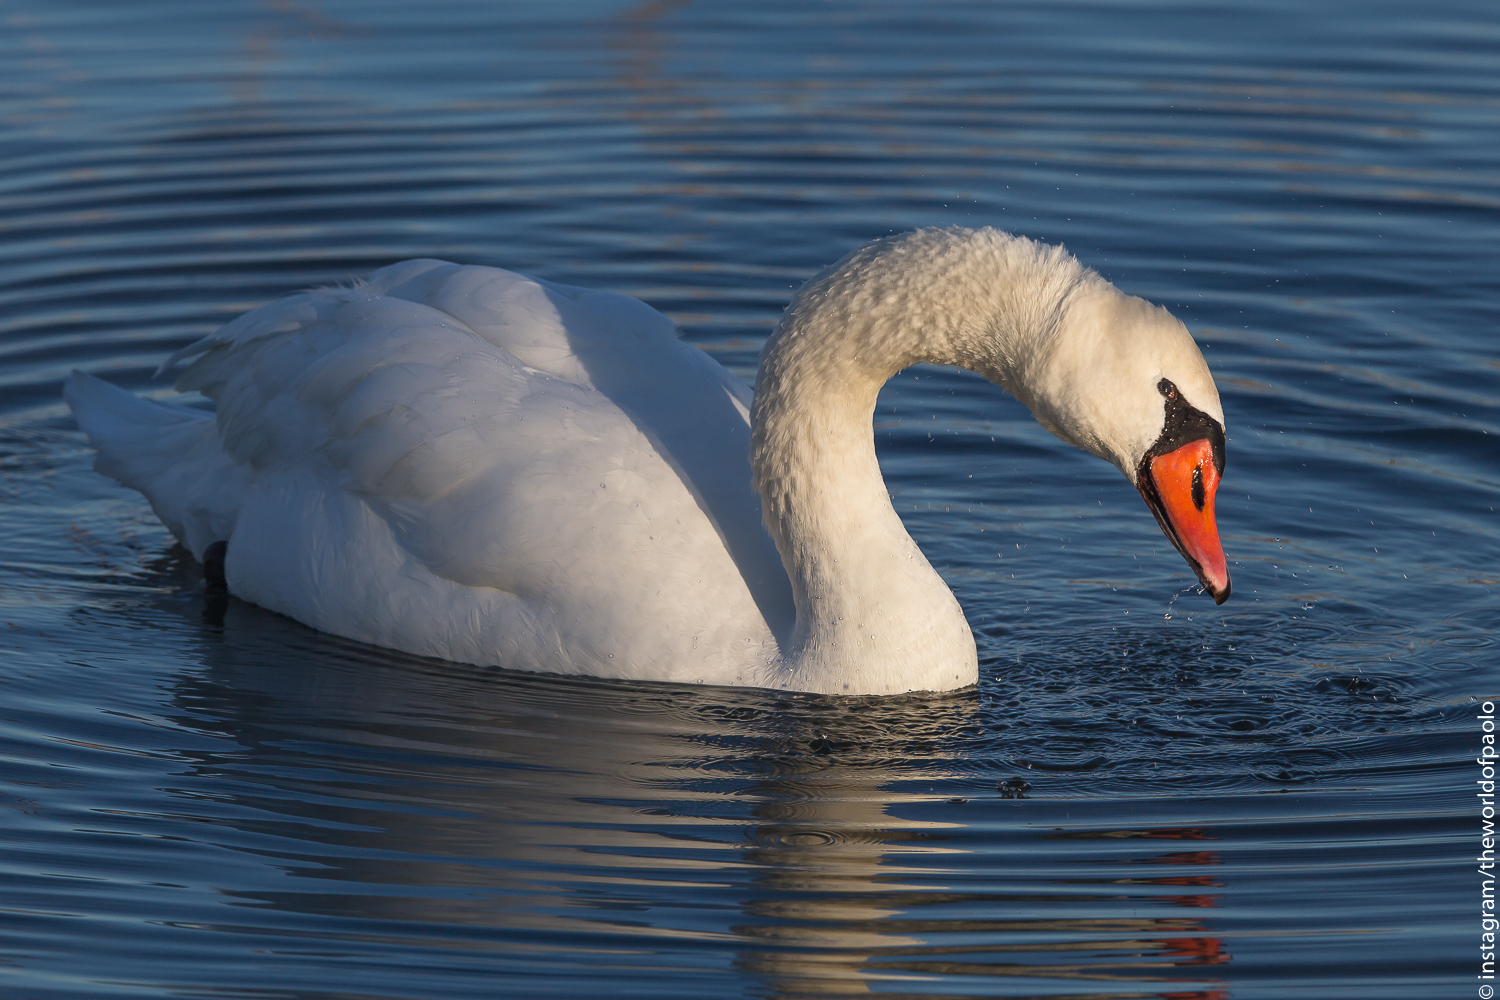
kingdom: Animalia
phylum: Chordata
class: Aves
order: Anseriformes
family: Anatidae
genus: Cygnus
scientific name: Cygnus olor
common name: Mute swan
